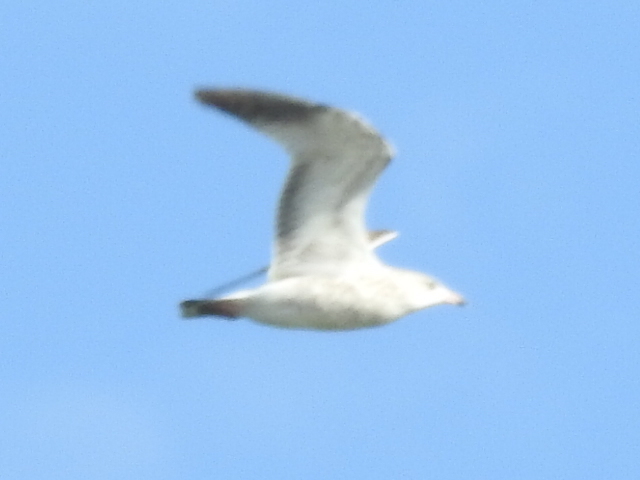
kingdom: Animalia
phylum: Chordata
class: Aves
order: Charadriiformes
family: Laridae
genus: Larus
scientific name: Larus delawarensis
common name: Ring-billed gull
